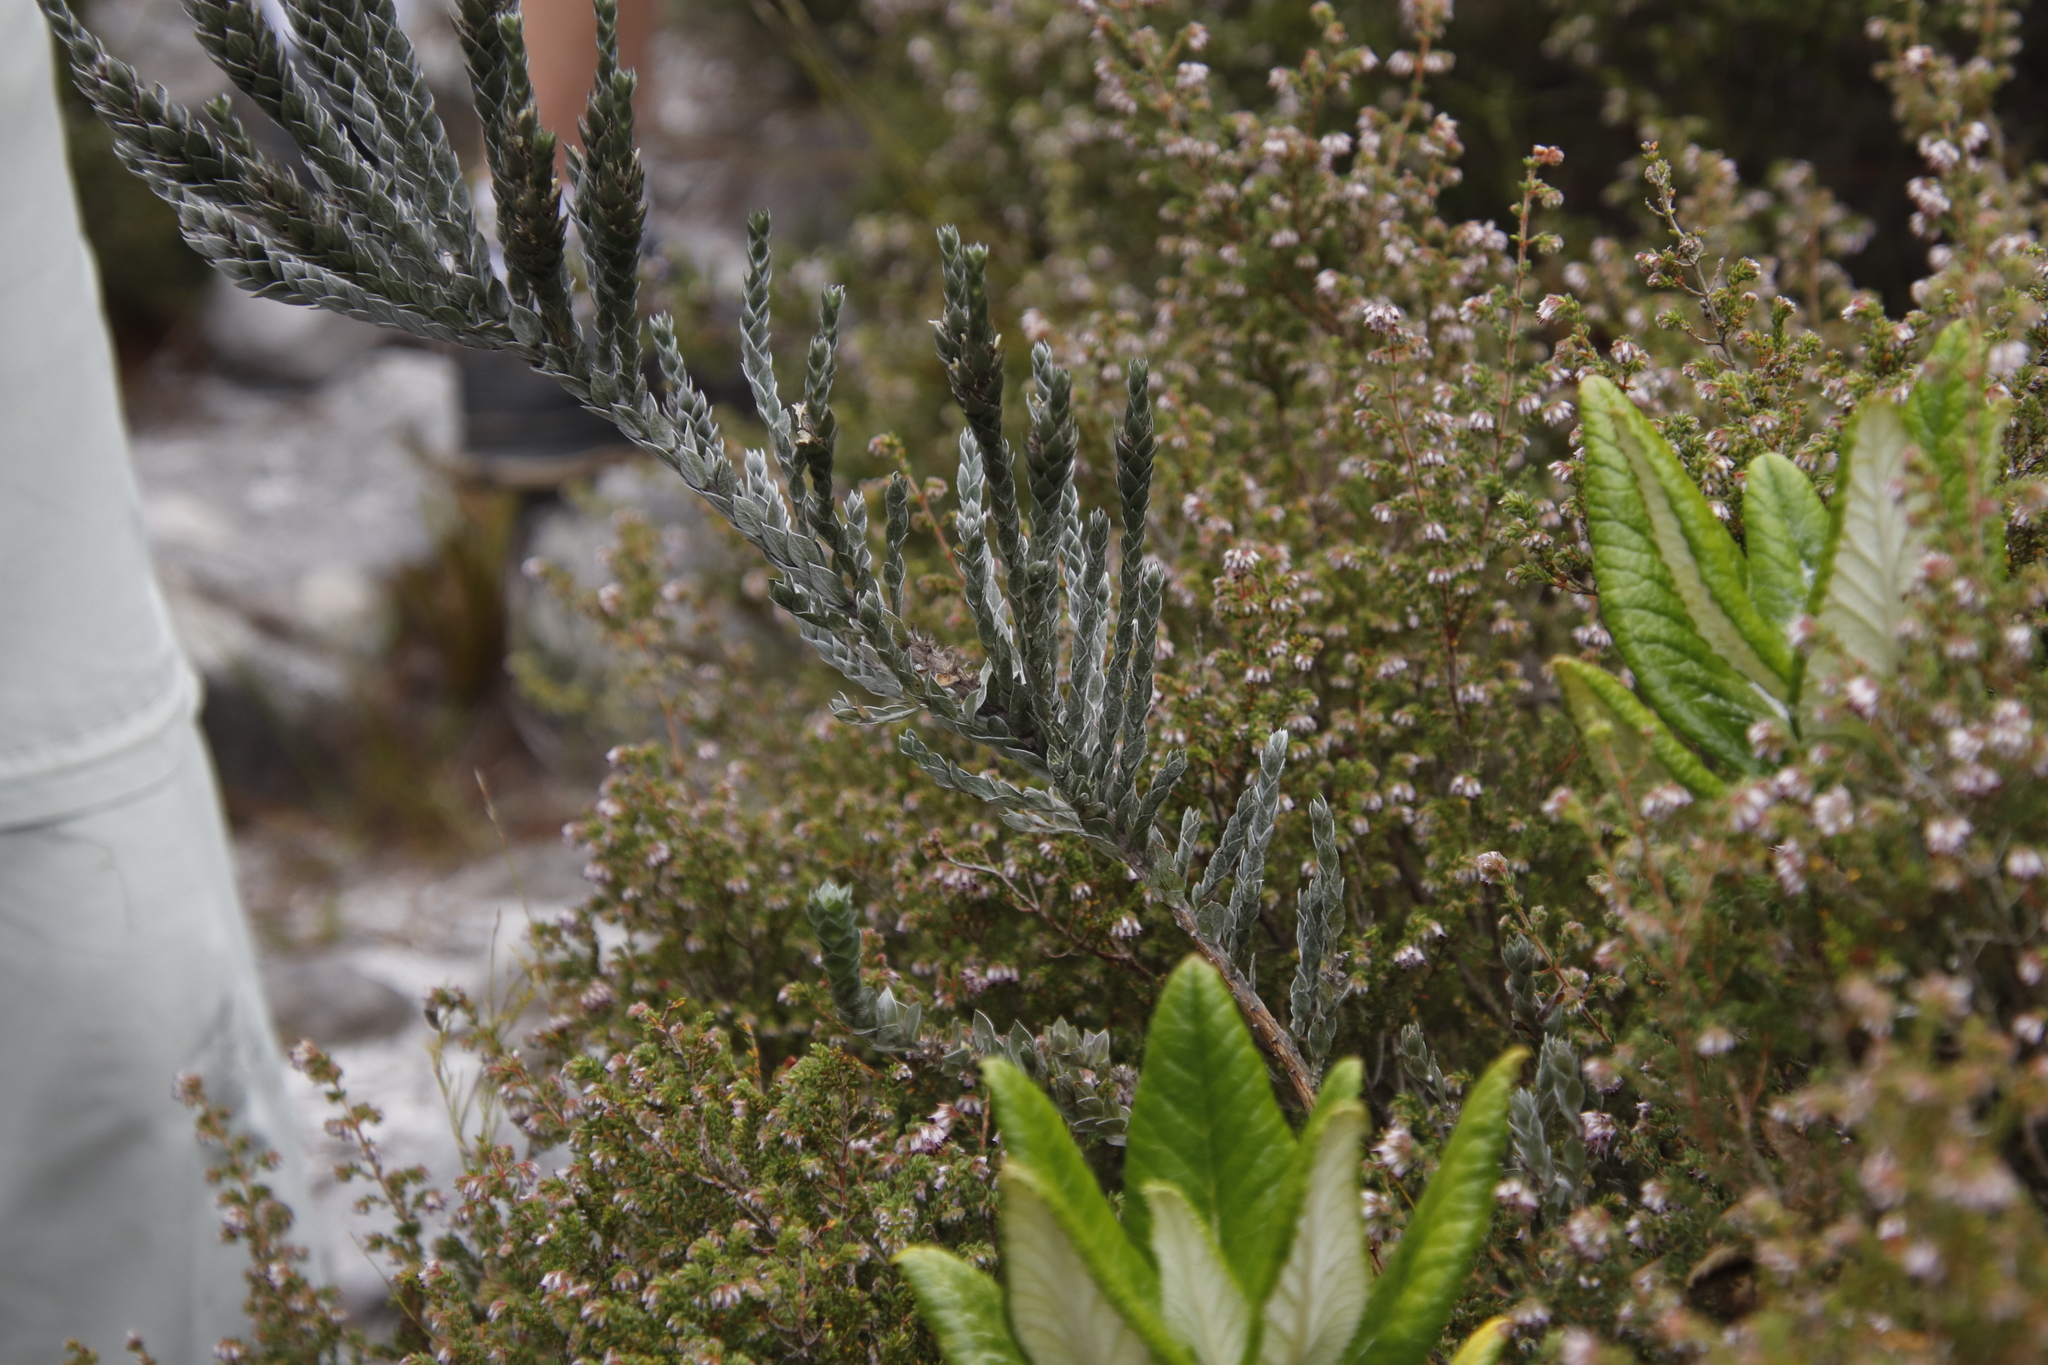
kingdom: Plantae
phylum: Tracheophyta
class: Magnoliopsida
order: Fabales
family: Fabaceae
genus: Amphithalea
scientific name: Amphithalea imbricata
